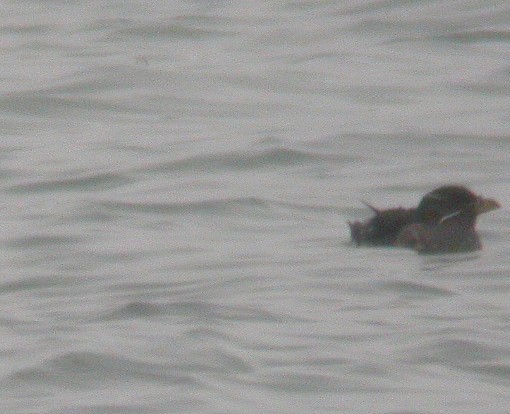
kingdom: Animalia
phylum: Chordata
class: Aves
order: Charadriiformes
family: Alcidae
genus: Cerorhinca
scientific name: Cerorhinca monocerata
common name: Rhinoceros auklet
